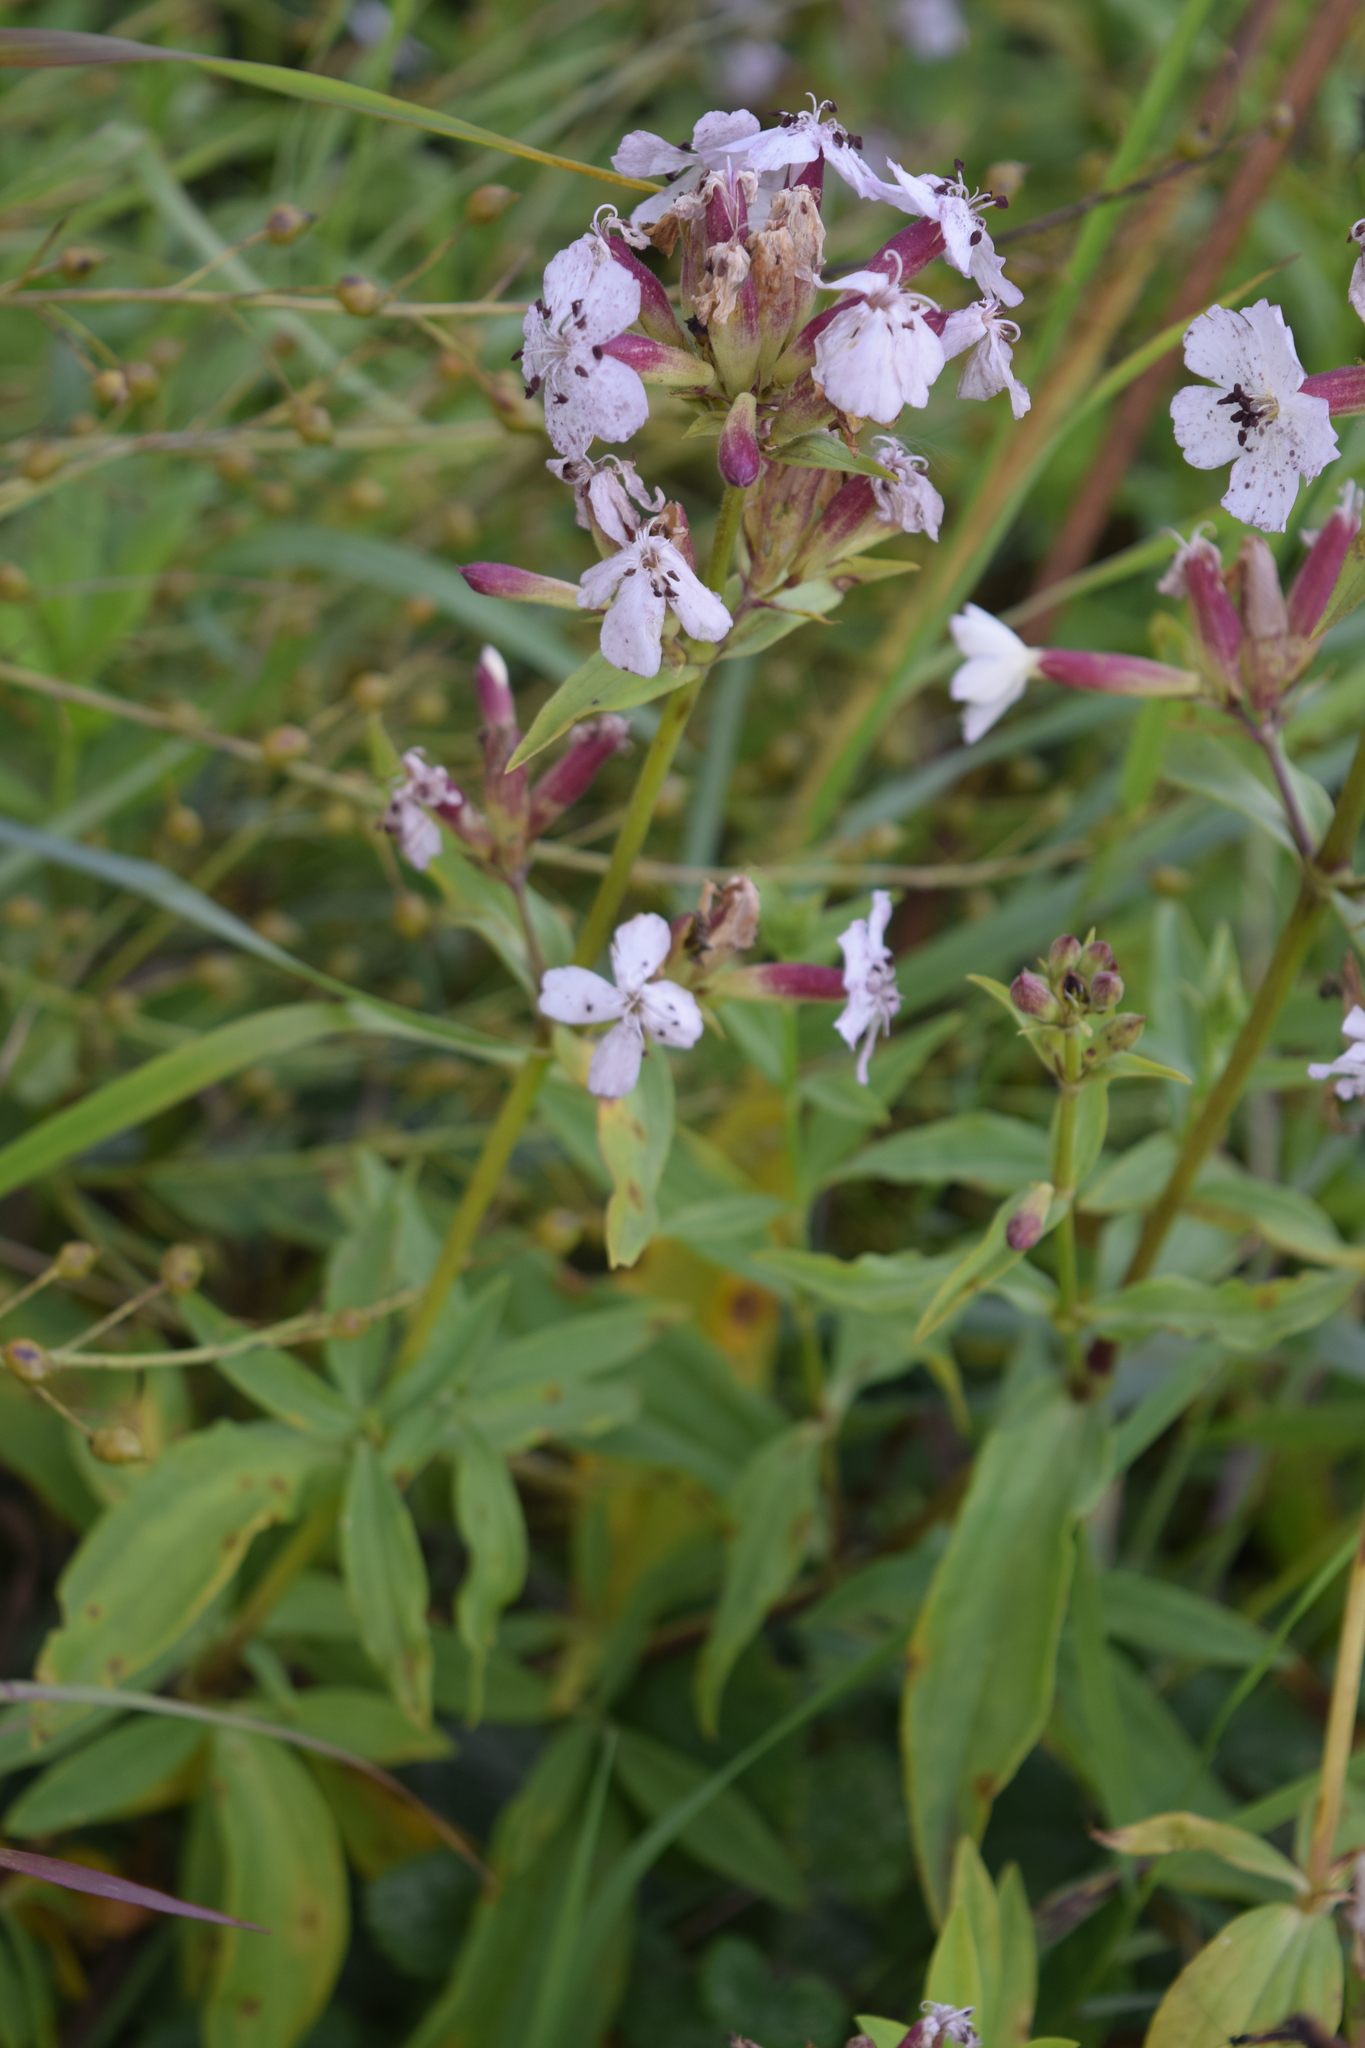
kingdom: Plantae
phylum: Tracheophyta
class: Magnoliopsida
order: Caryophyllales
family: Caryophyllaceae
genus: Saponaria
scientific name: Saponaria officinalis
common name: Soapwort
